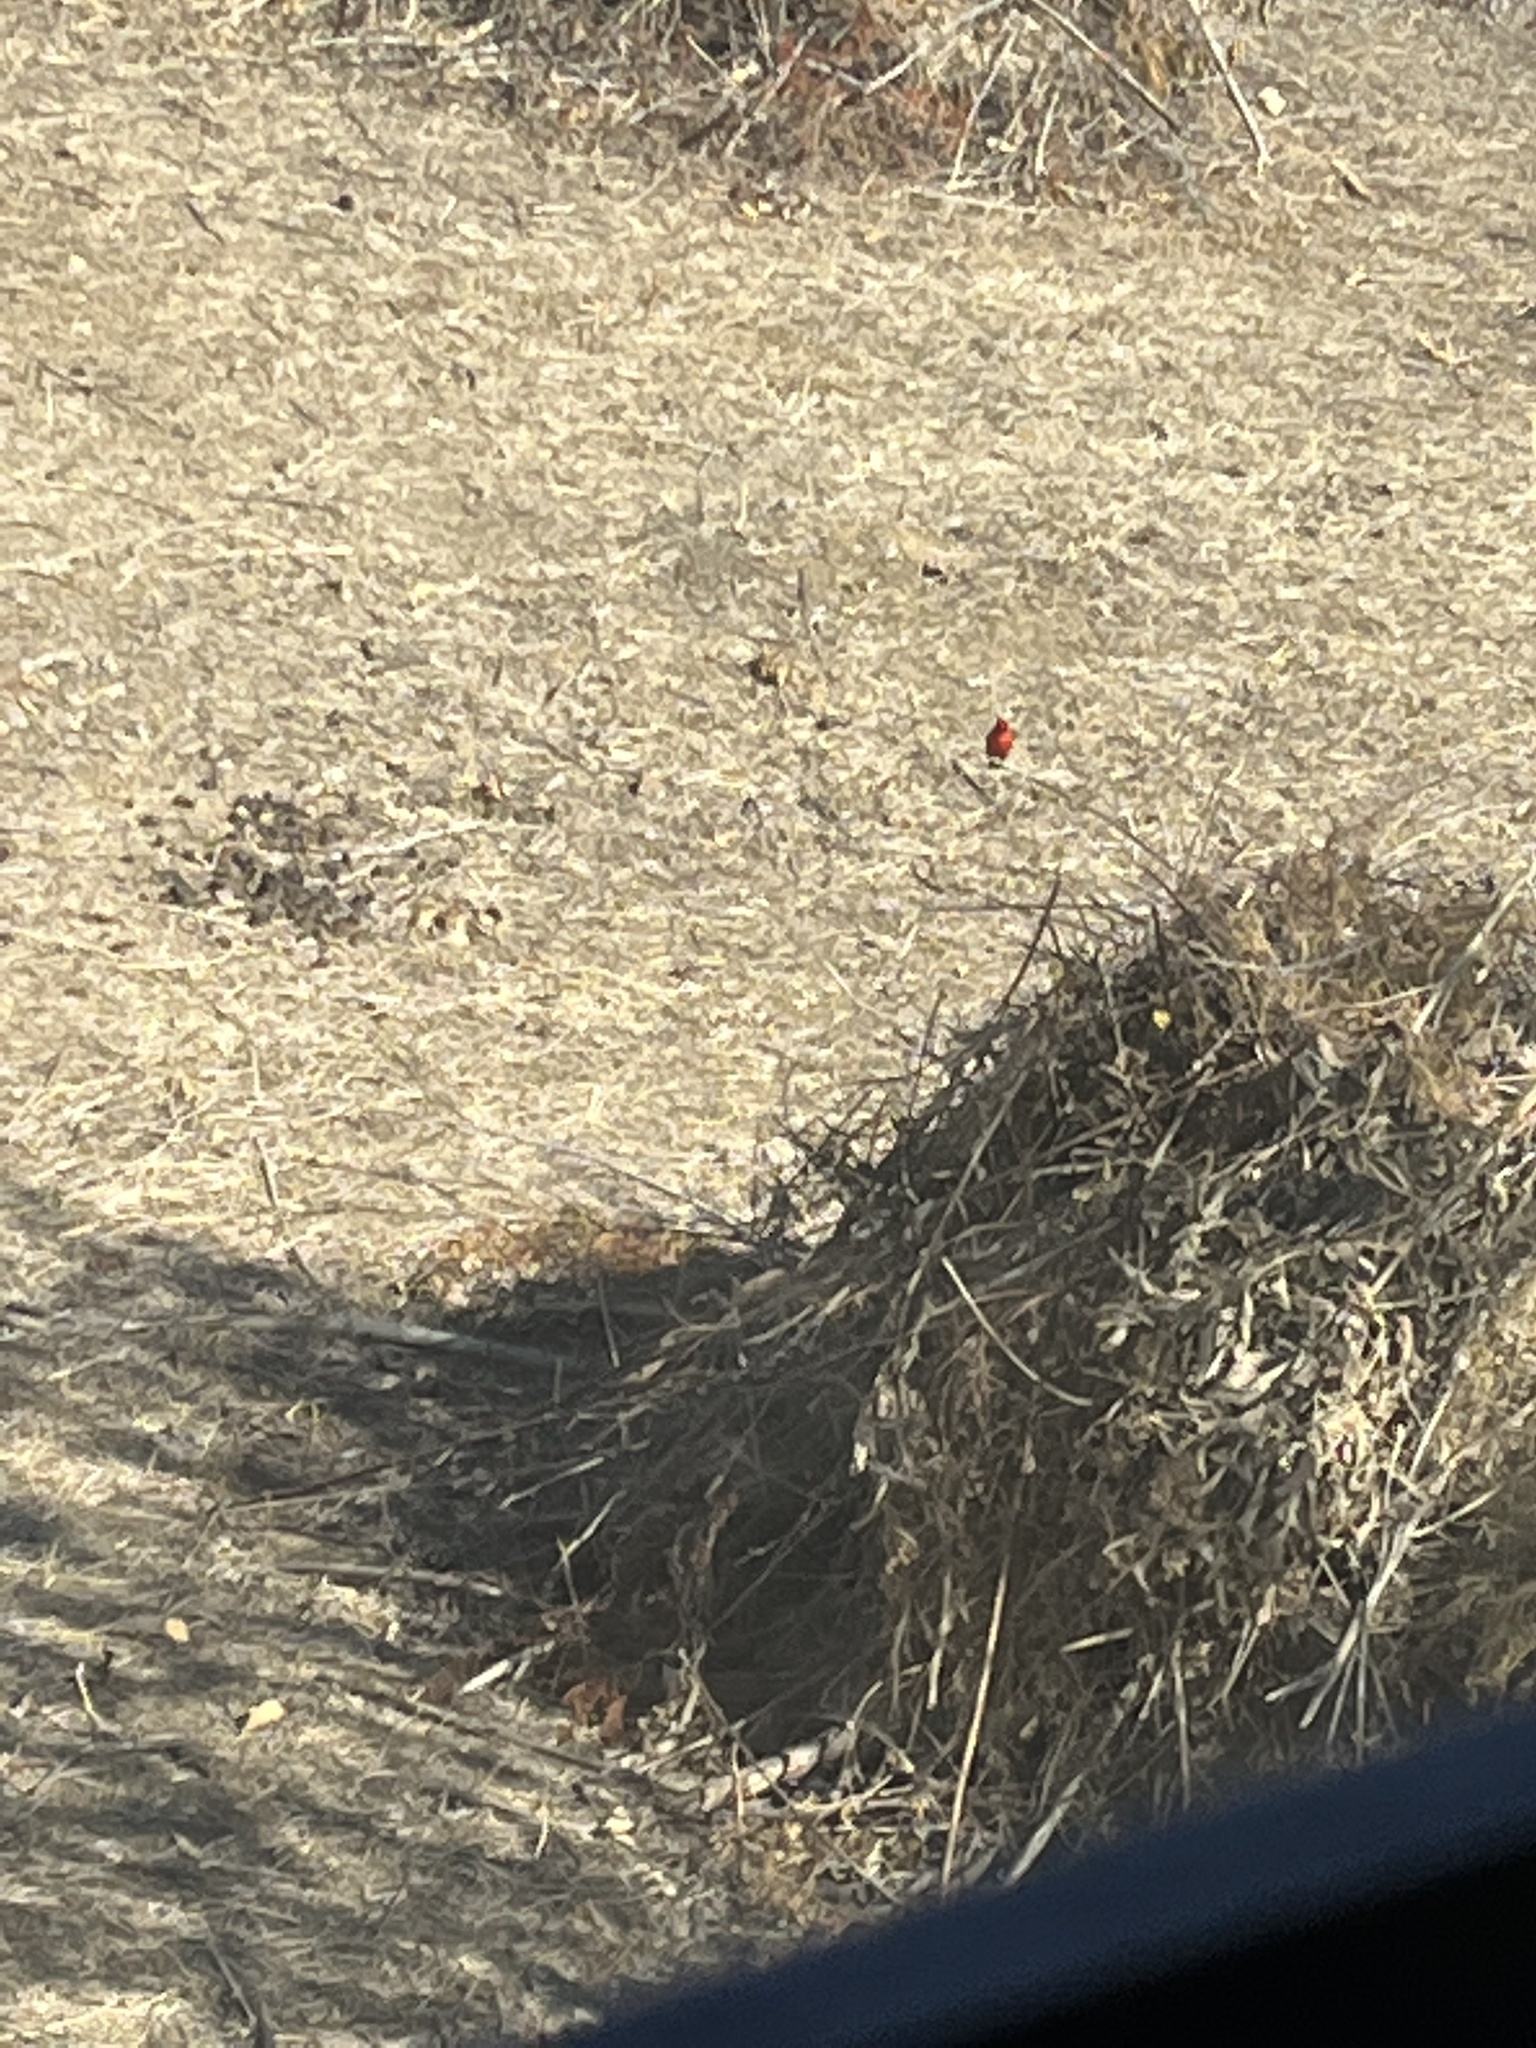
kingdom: Animalia
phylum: Chordata
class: Aves
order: Passeriformes
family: Tyrannidae
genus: Pyrocephalus
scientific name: Pyrocephalus rubinus
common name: Vermilion flycatcher
